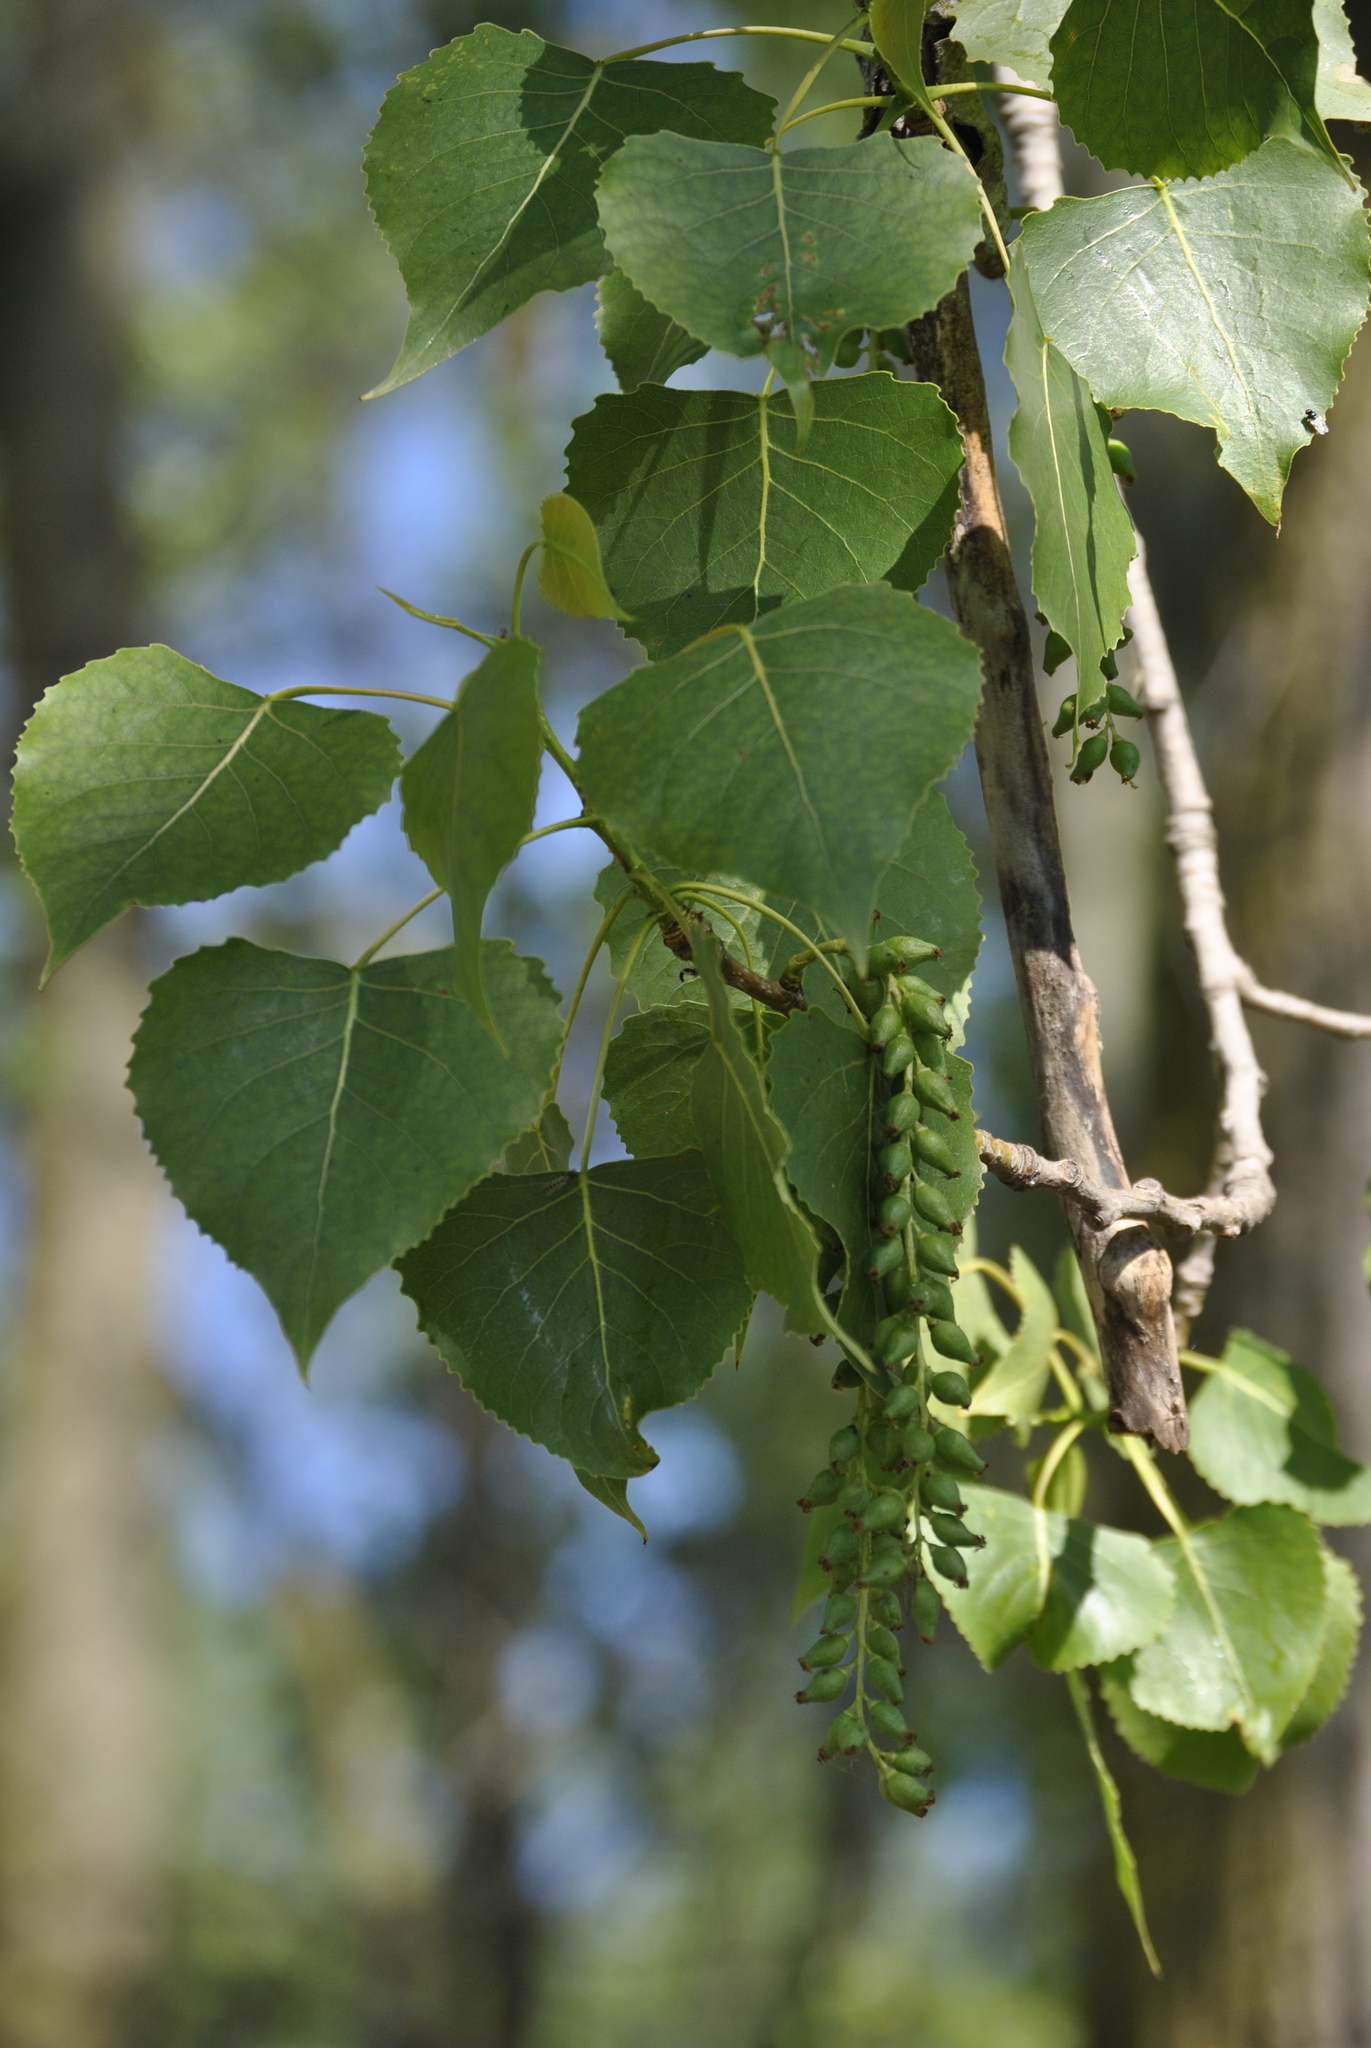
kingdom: Plantae
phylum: Tracheophyta
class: Magnoliopsida
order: Malpighiales
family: Salicaceae
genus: Populus
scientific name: Populus deltoides
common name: Eastern cottonwood
